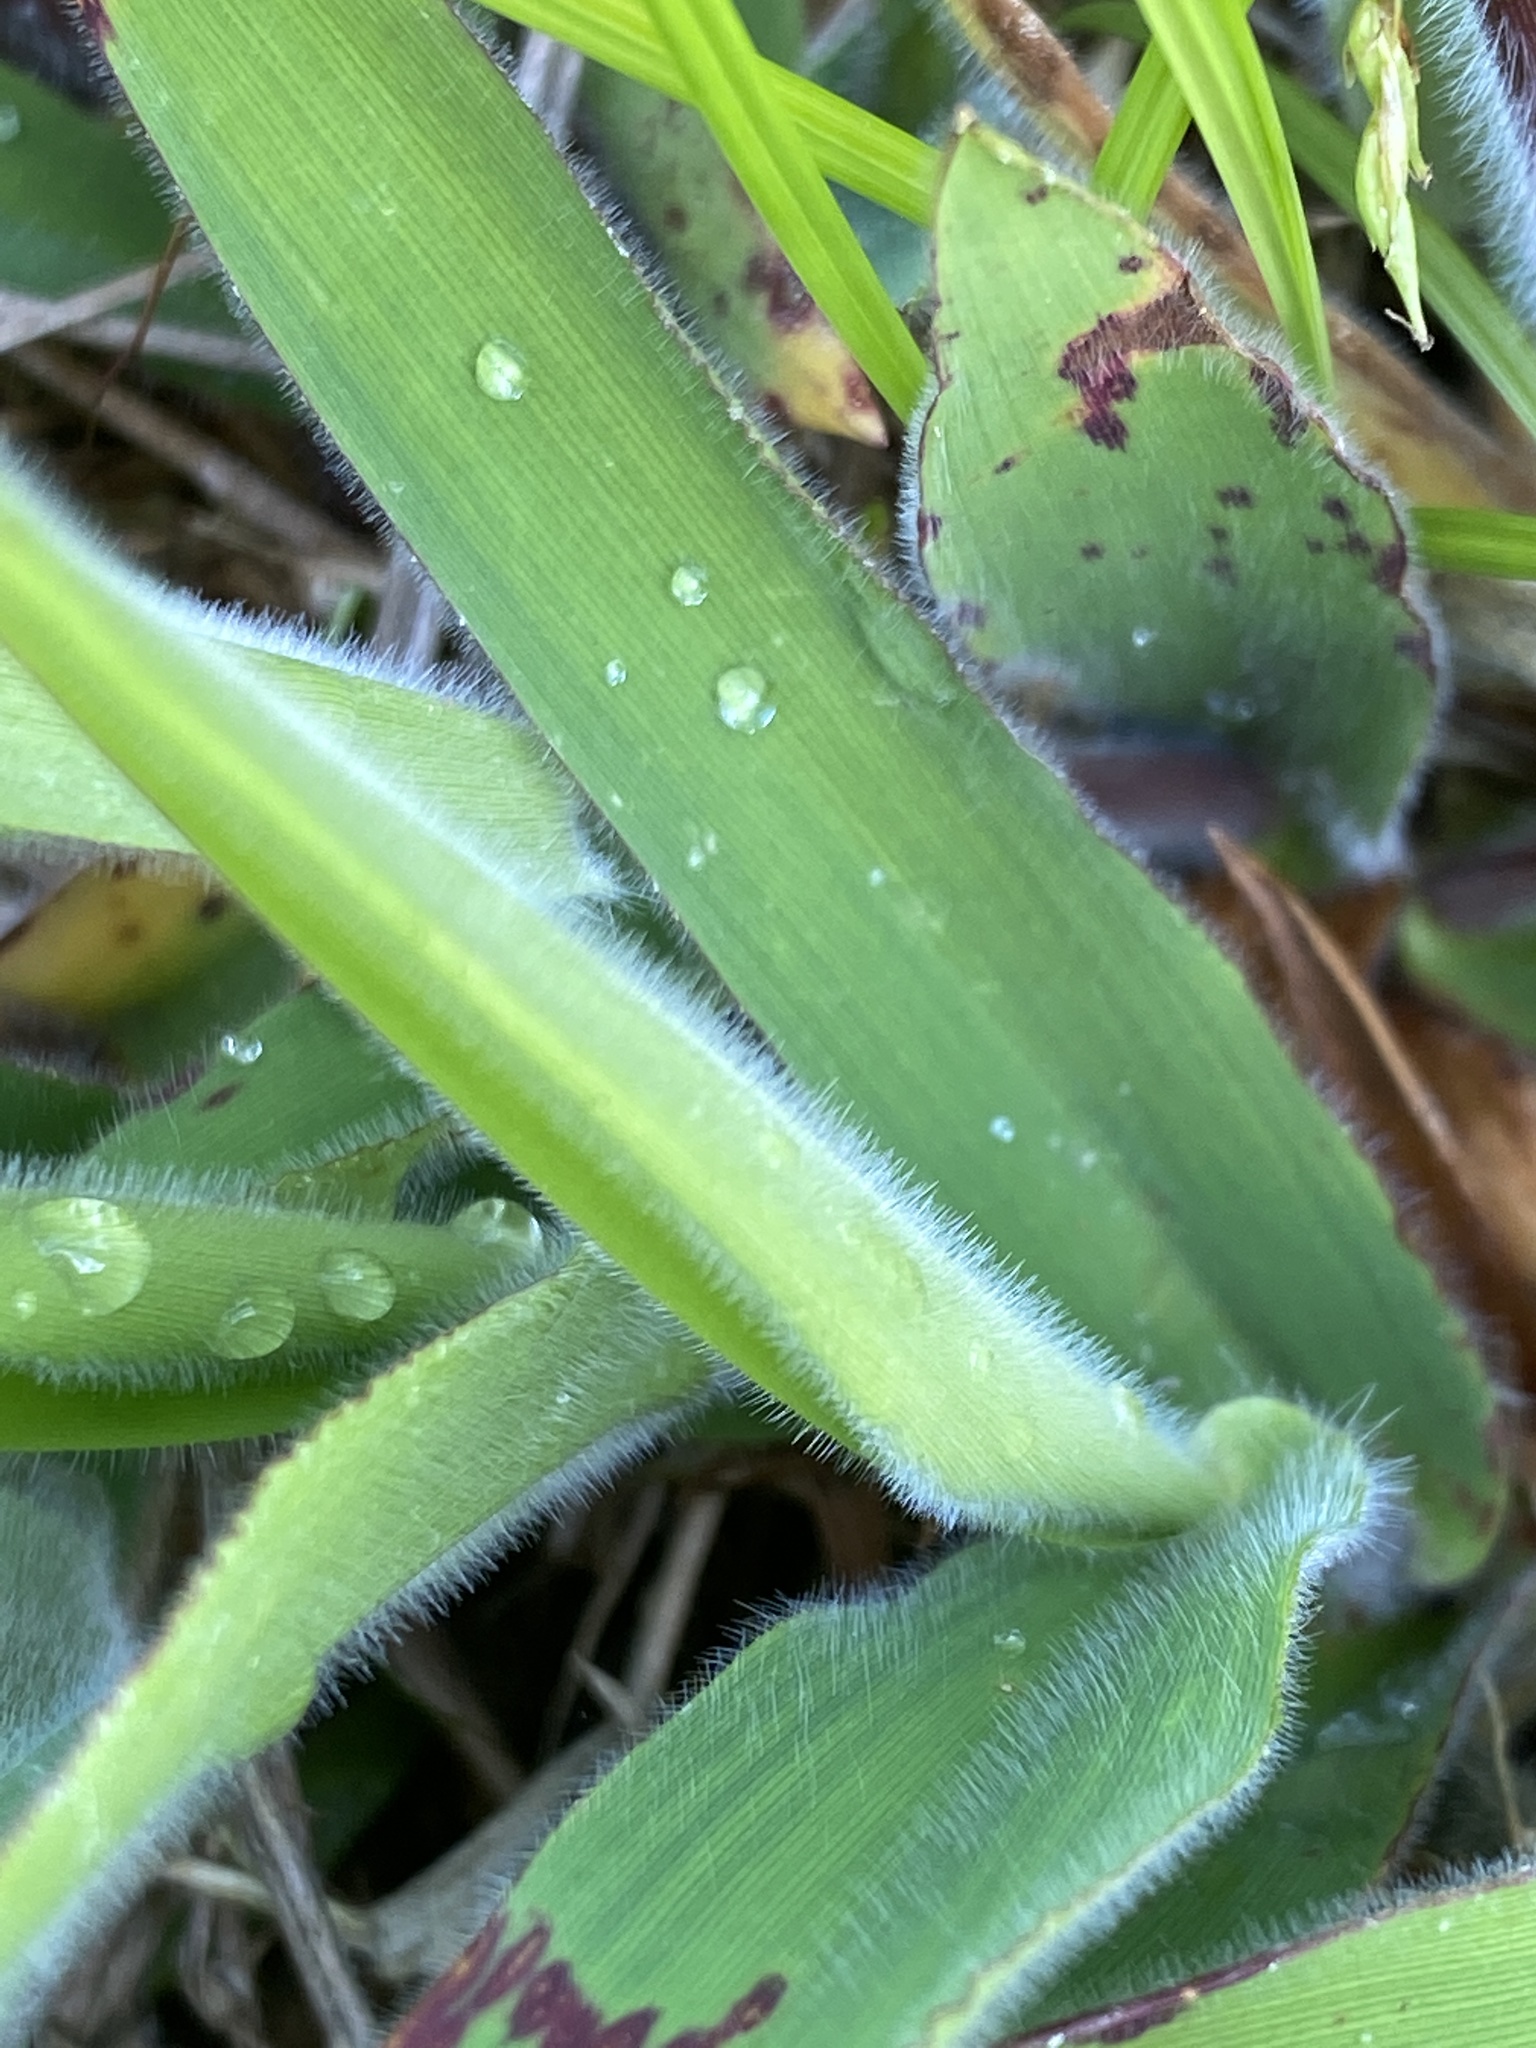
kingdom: Plantae
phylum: Tracheophyta
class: Liliopsida
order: Poales
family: Poaceae
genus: Dichanthelium
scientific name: Dichanthelium scoparium
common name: Velvety panic grass
